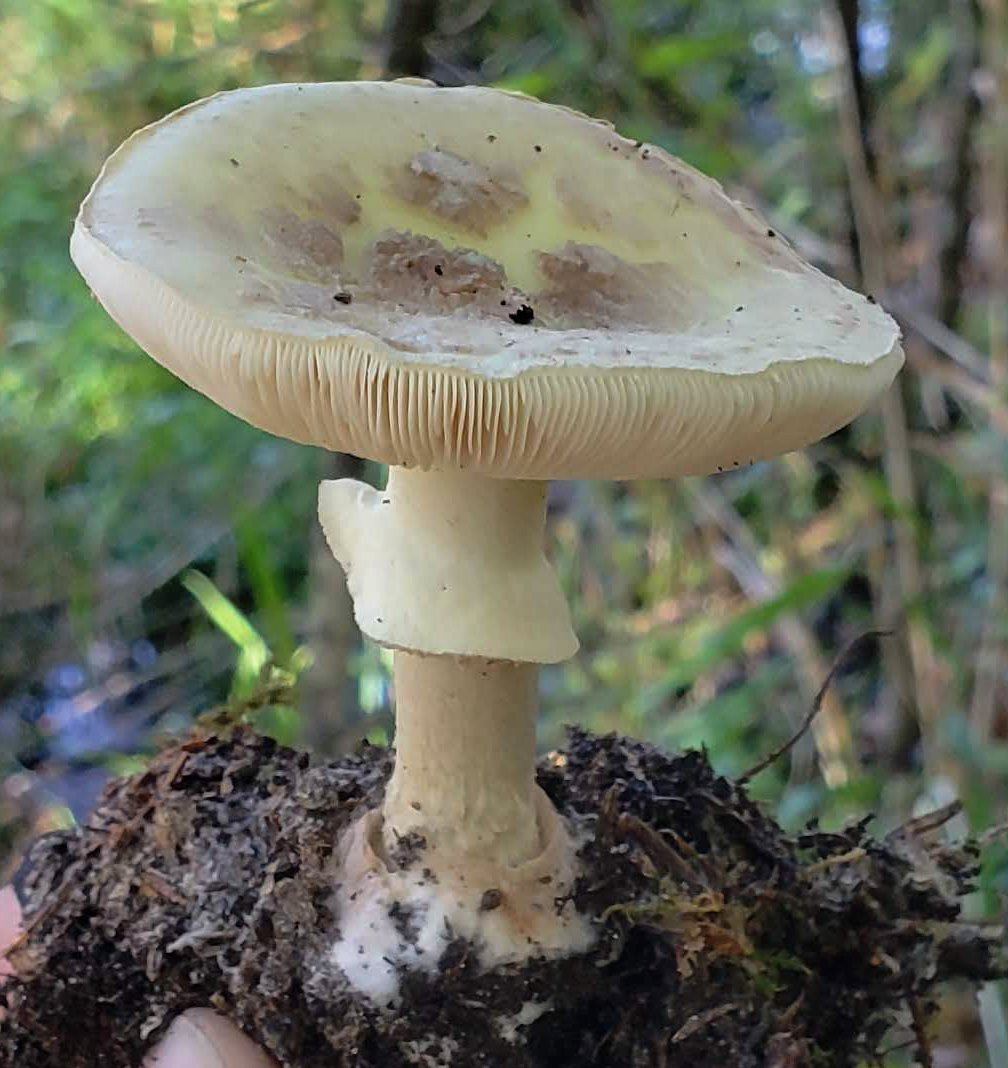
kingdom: Fungi
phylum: Basidiomycota
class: Agaricomycetes
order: Agaricales
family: Amanitaceae
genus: Amanita
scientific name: Amanita lavendula
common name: Coker's lavender staining amanita
